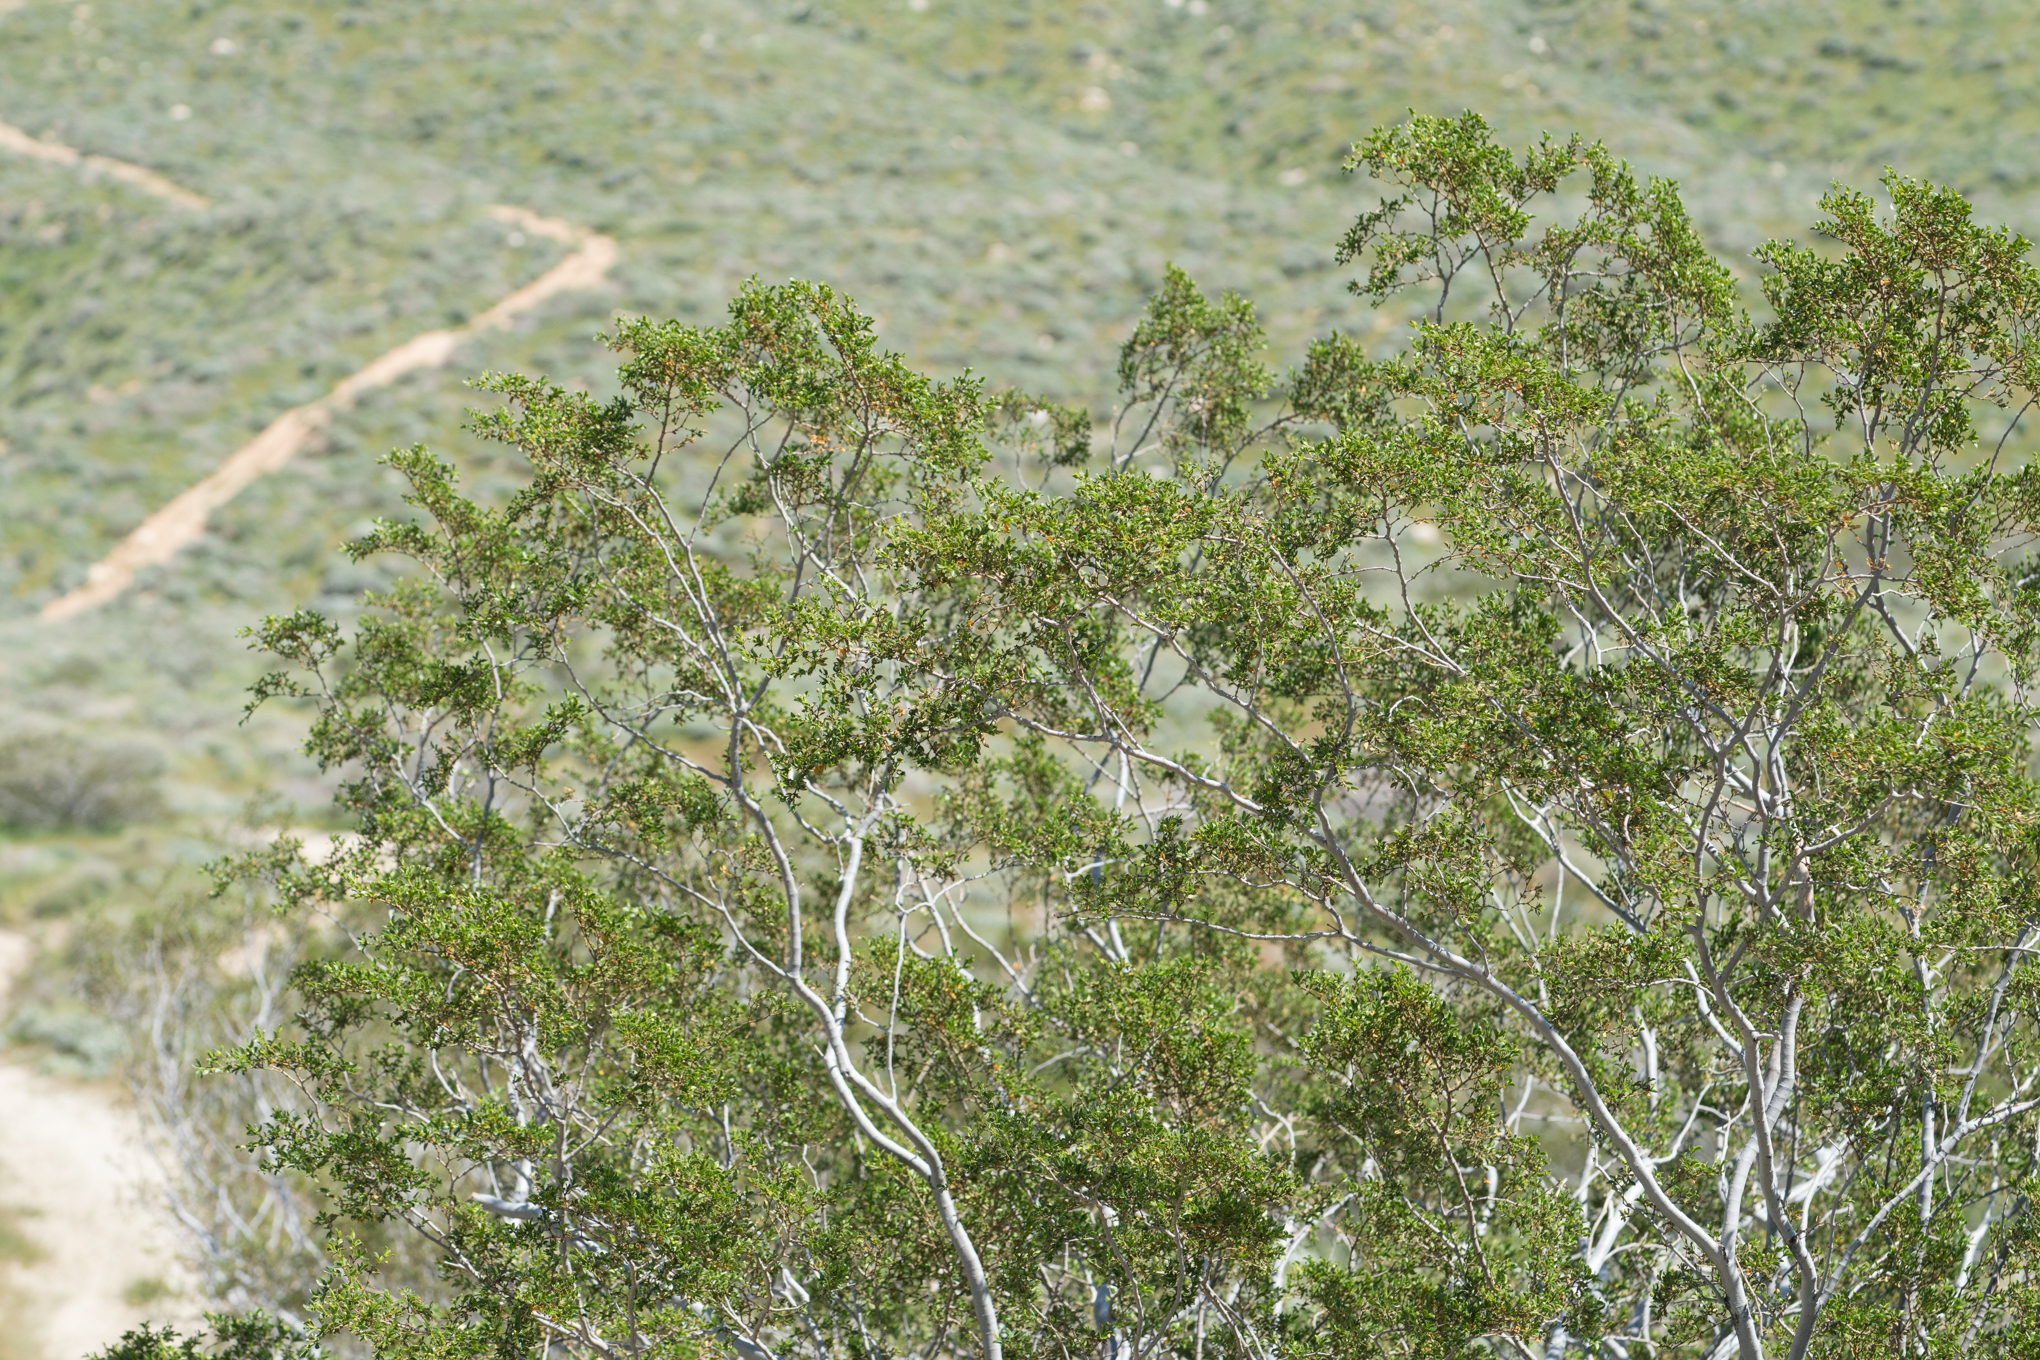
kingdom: Plantae
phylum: Tracheophyta
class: Magnoliopsida
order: Zygophyllales
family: Zygophyllaceae
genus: Larrea
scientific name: Larrea tridentata
